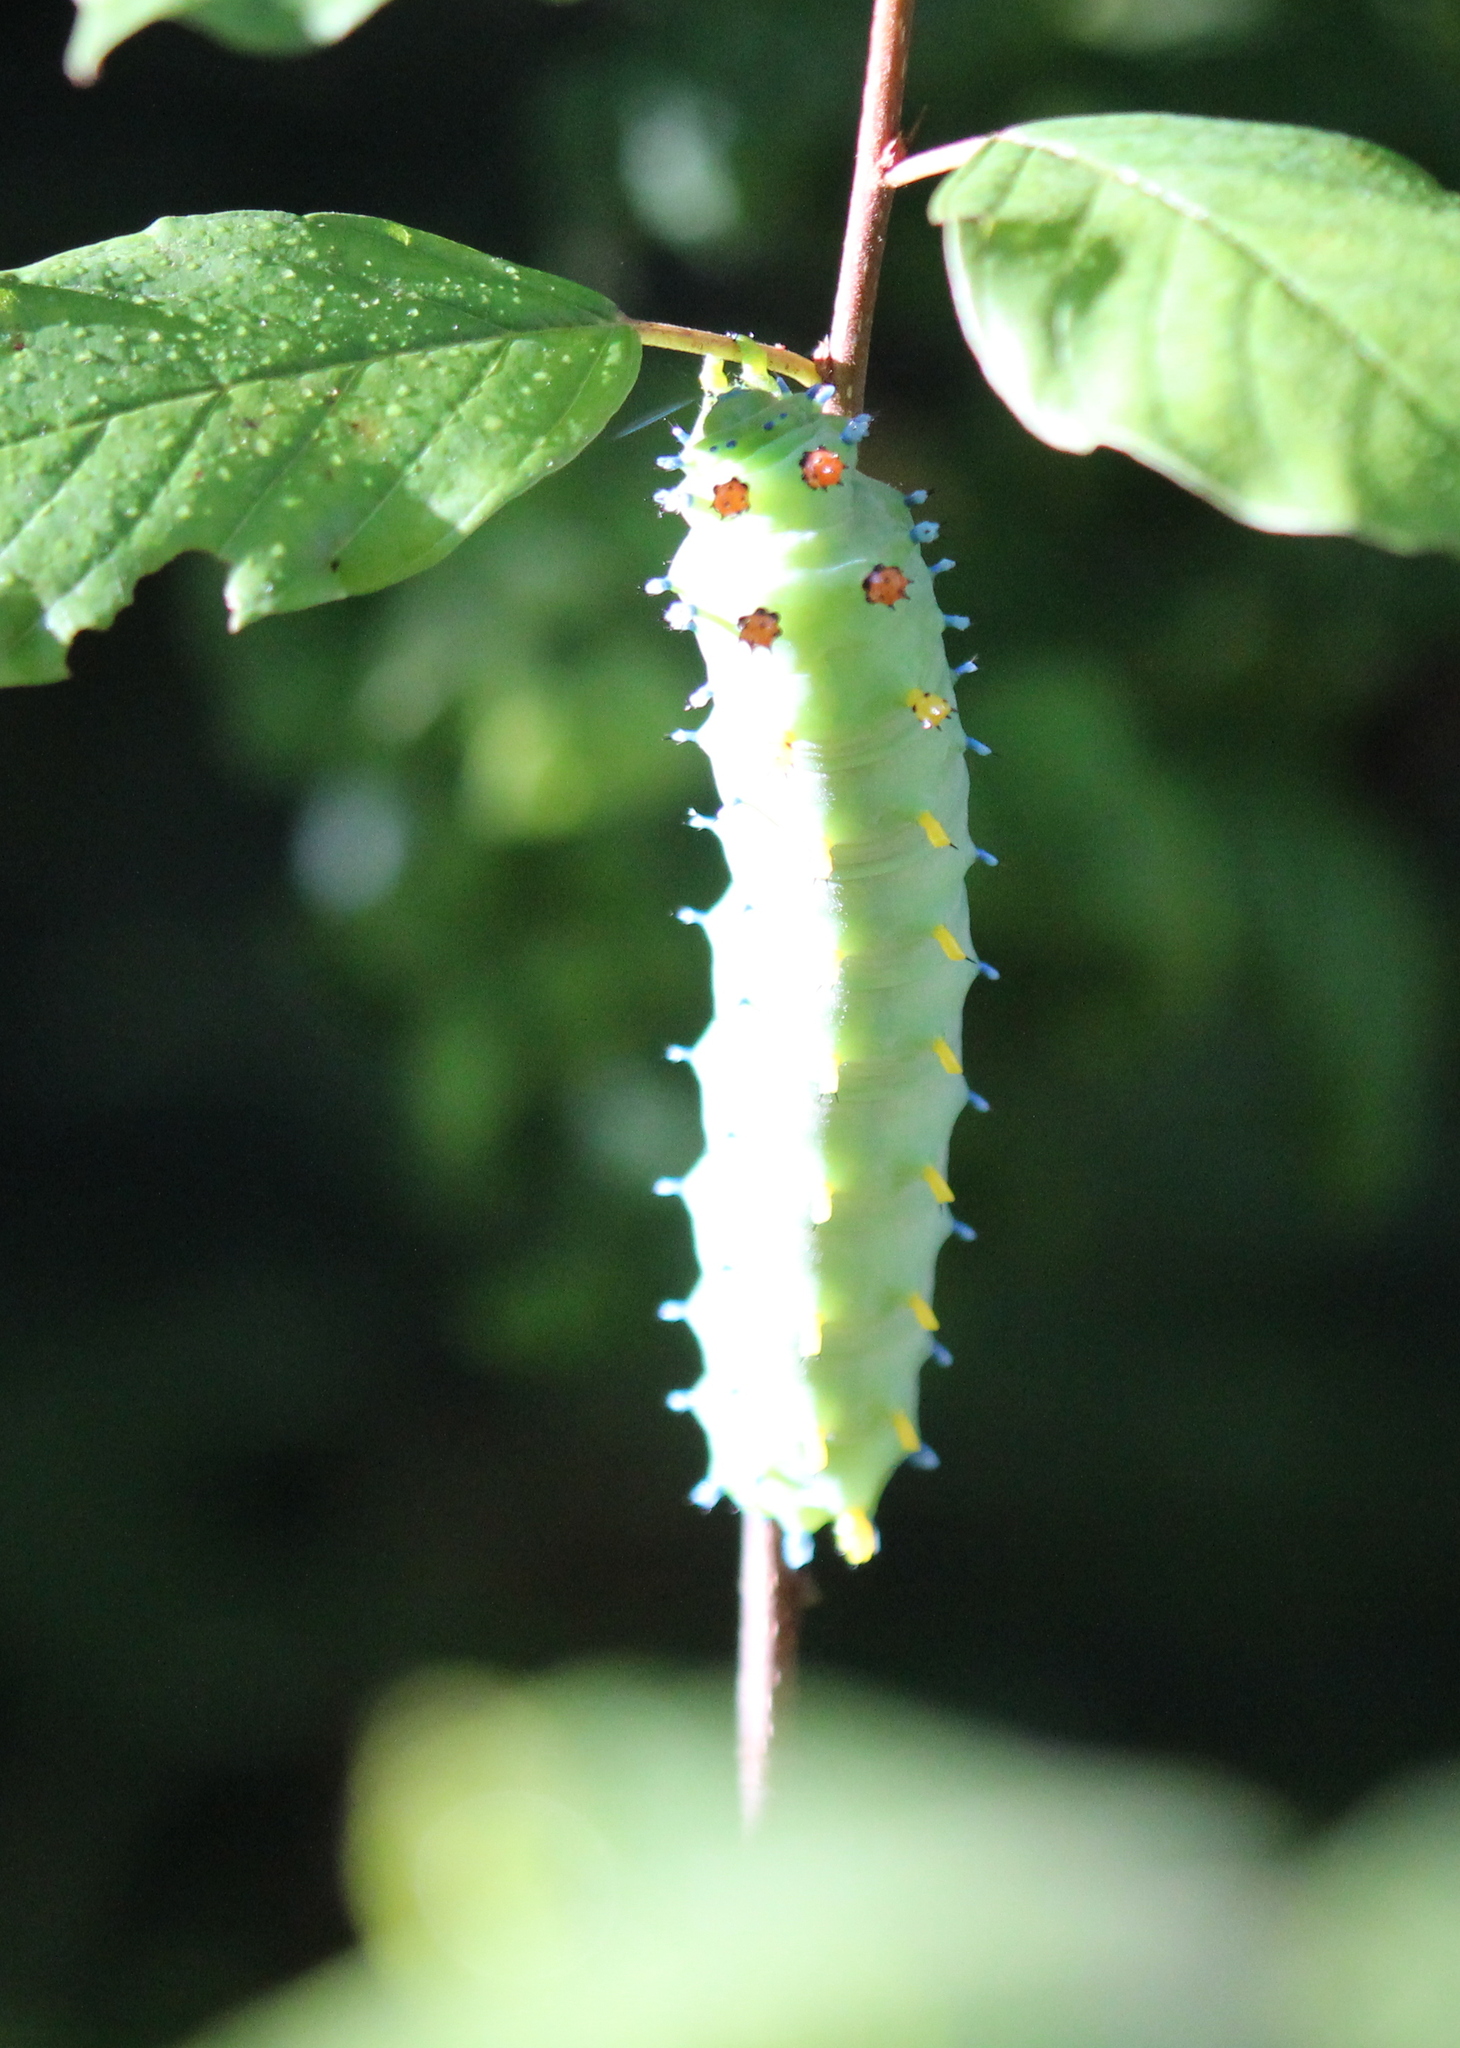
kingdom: Animalia
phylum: Arthropoda
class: Insecta
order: Lepidoptera
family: Saturniidae
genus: Hyalophora
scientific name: Hyalophora cecropia
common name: Cecropia silkmoth
